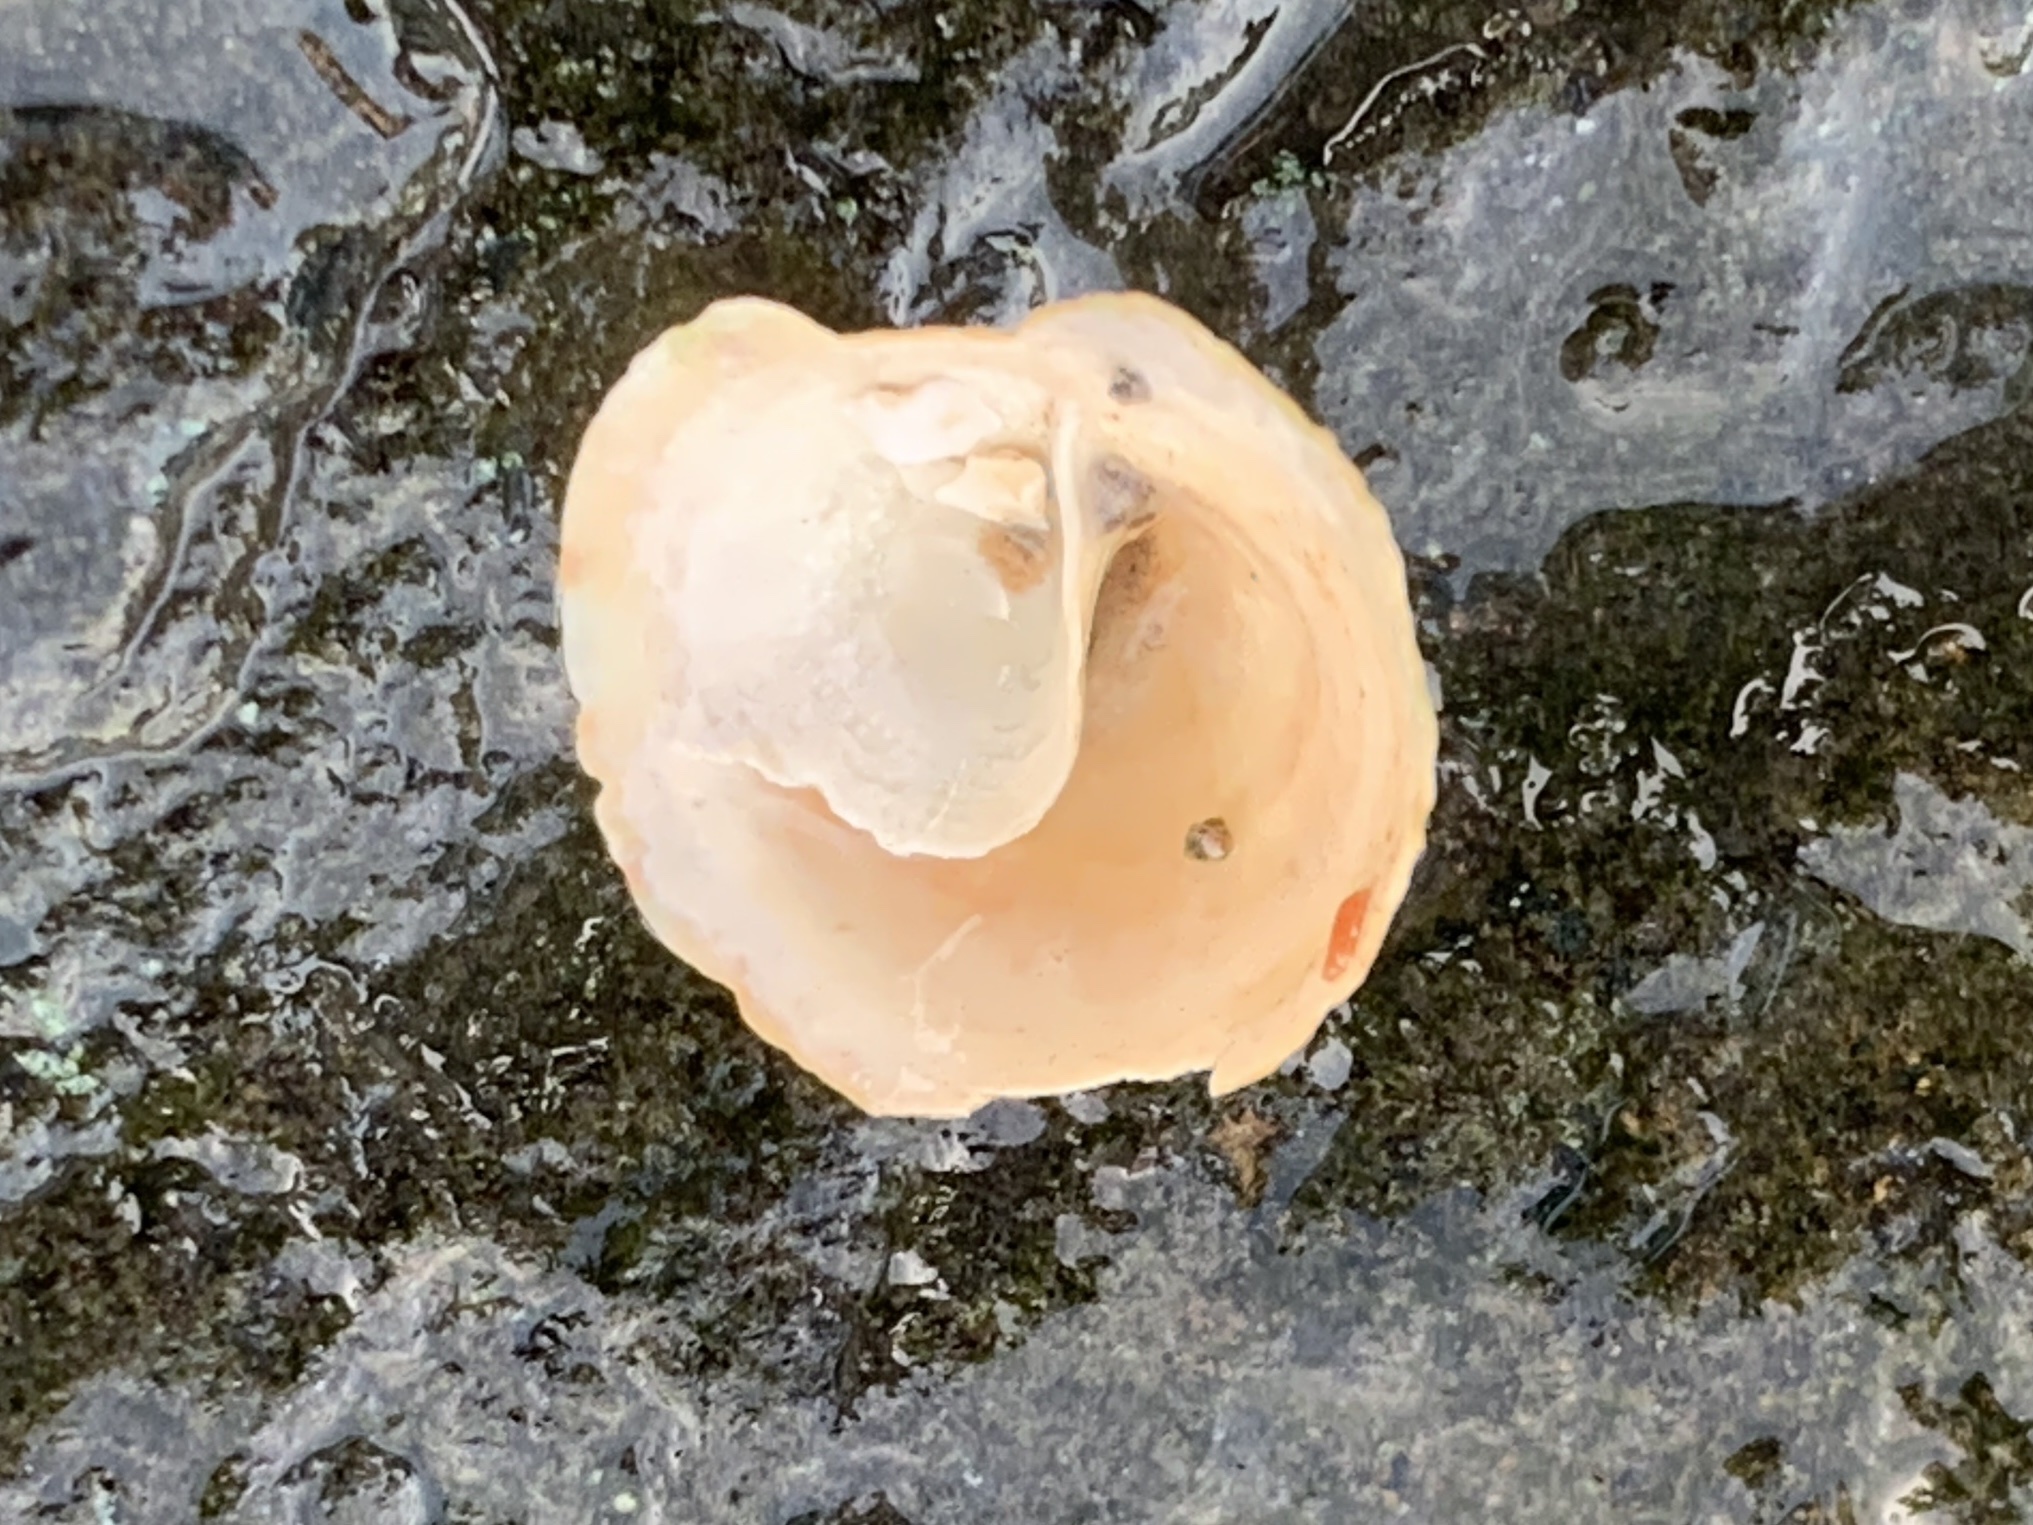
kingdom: Animalia
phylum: Mollusca
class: Gastropoda
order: Littorinimorpha
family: Calyptraeidae
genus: Crucibulum
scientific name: Crucibulum striatum
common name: Striate cup-and -saucer
